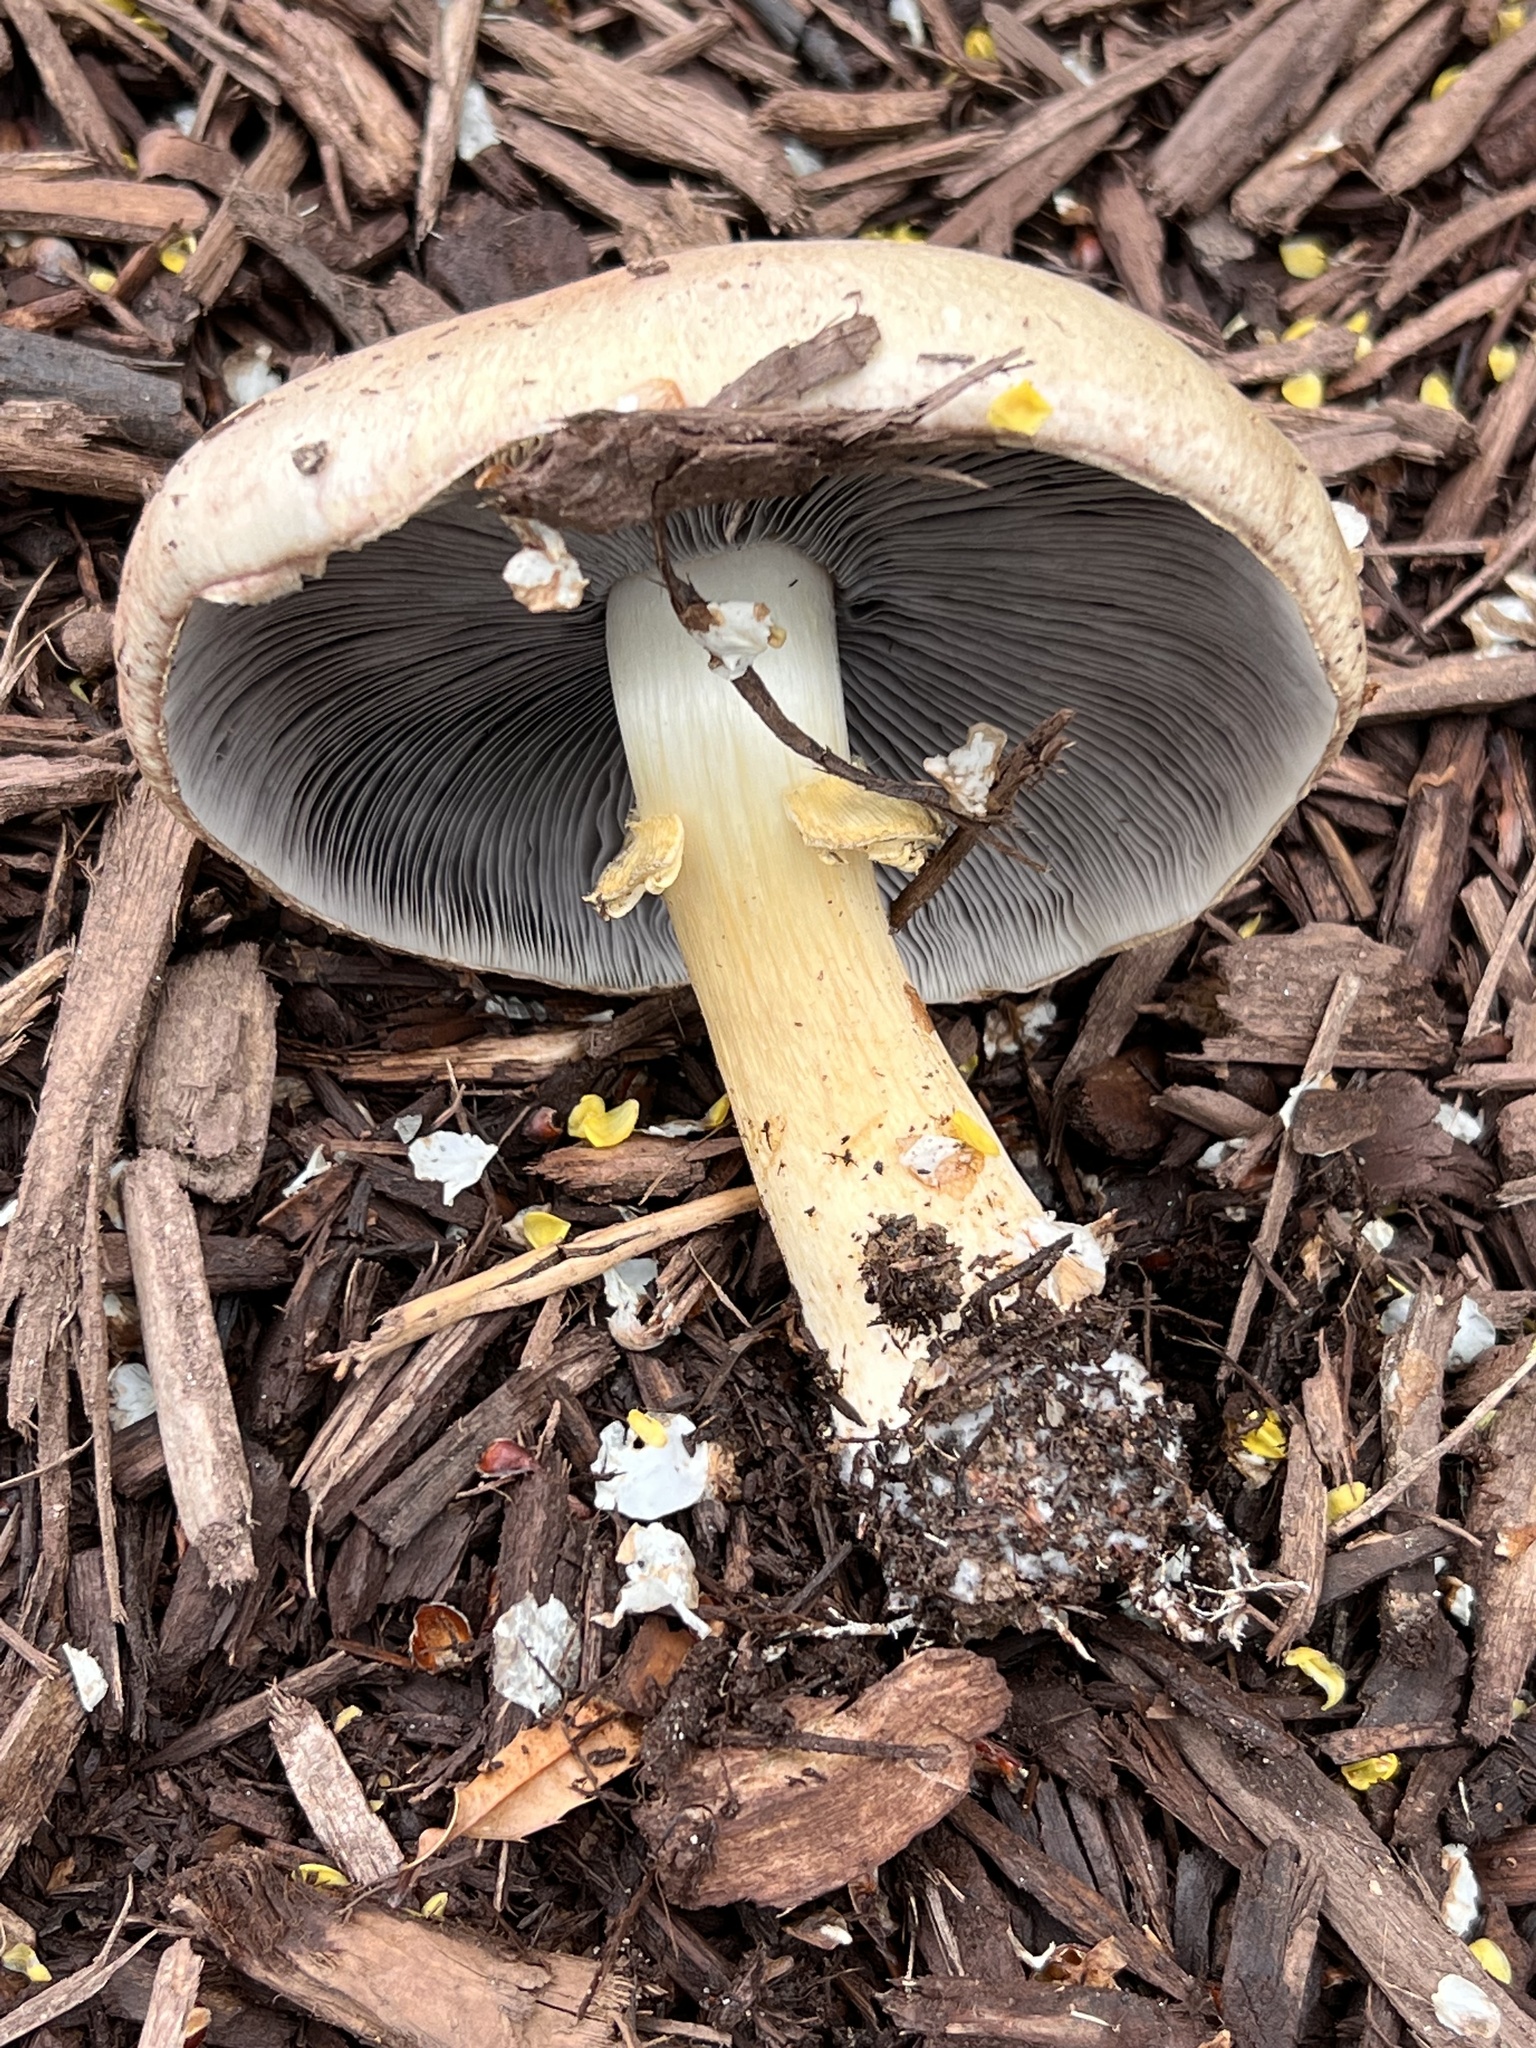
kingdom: Fungi
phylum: Basidiomycota
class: Agaricomycetes
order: Agaricales
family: Strophariaceae
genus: Stropharia
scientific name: Stropharia rugosoannulata
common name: Wine roundhead
